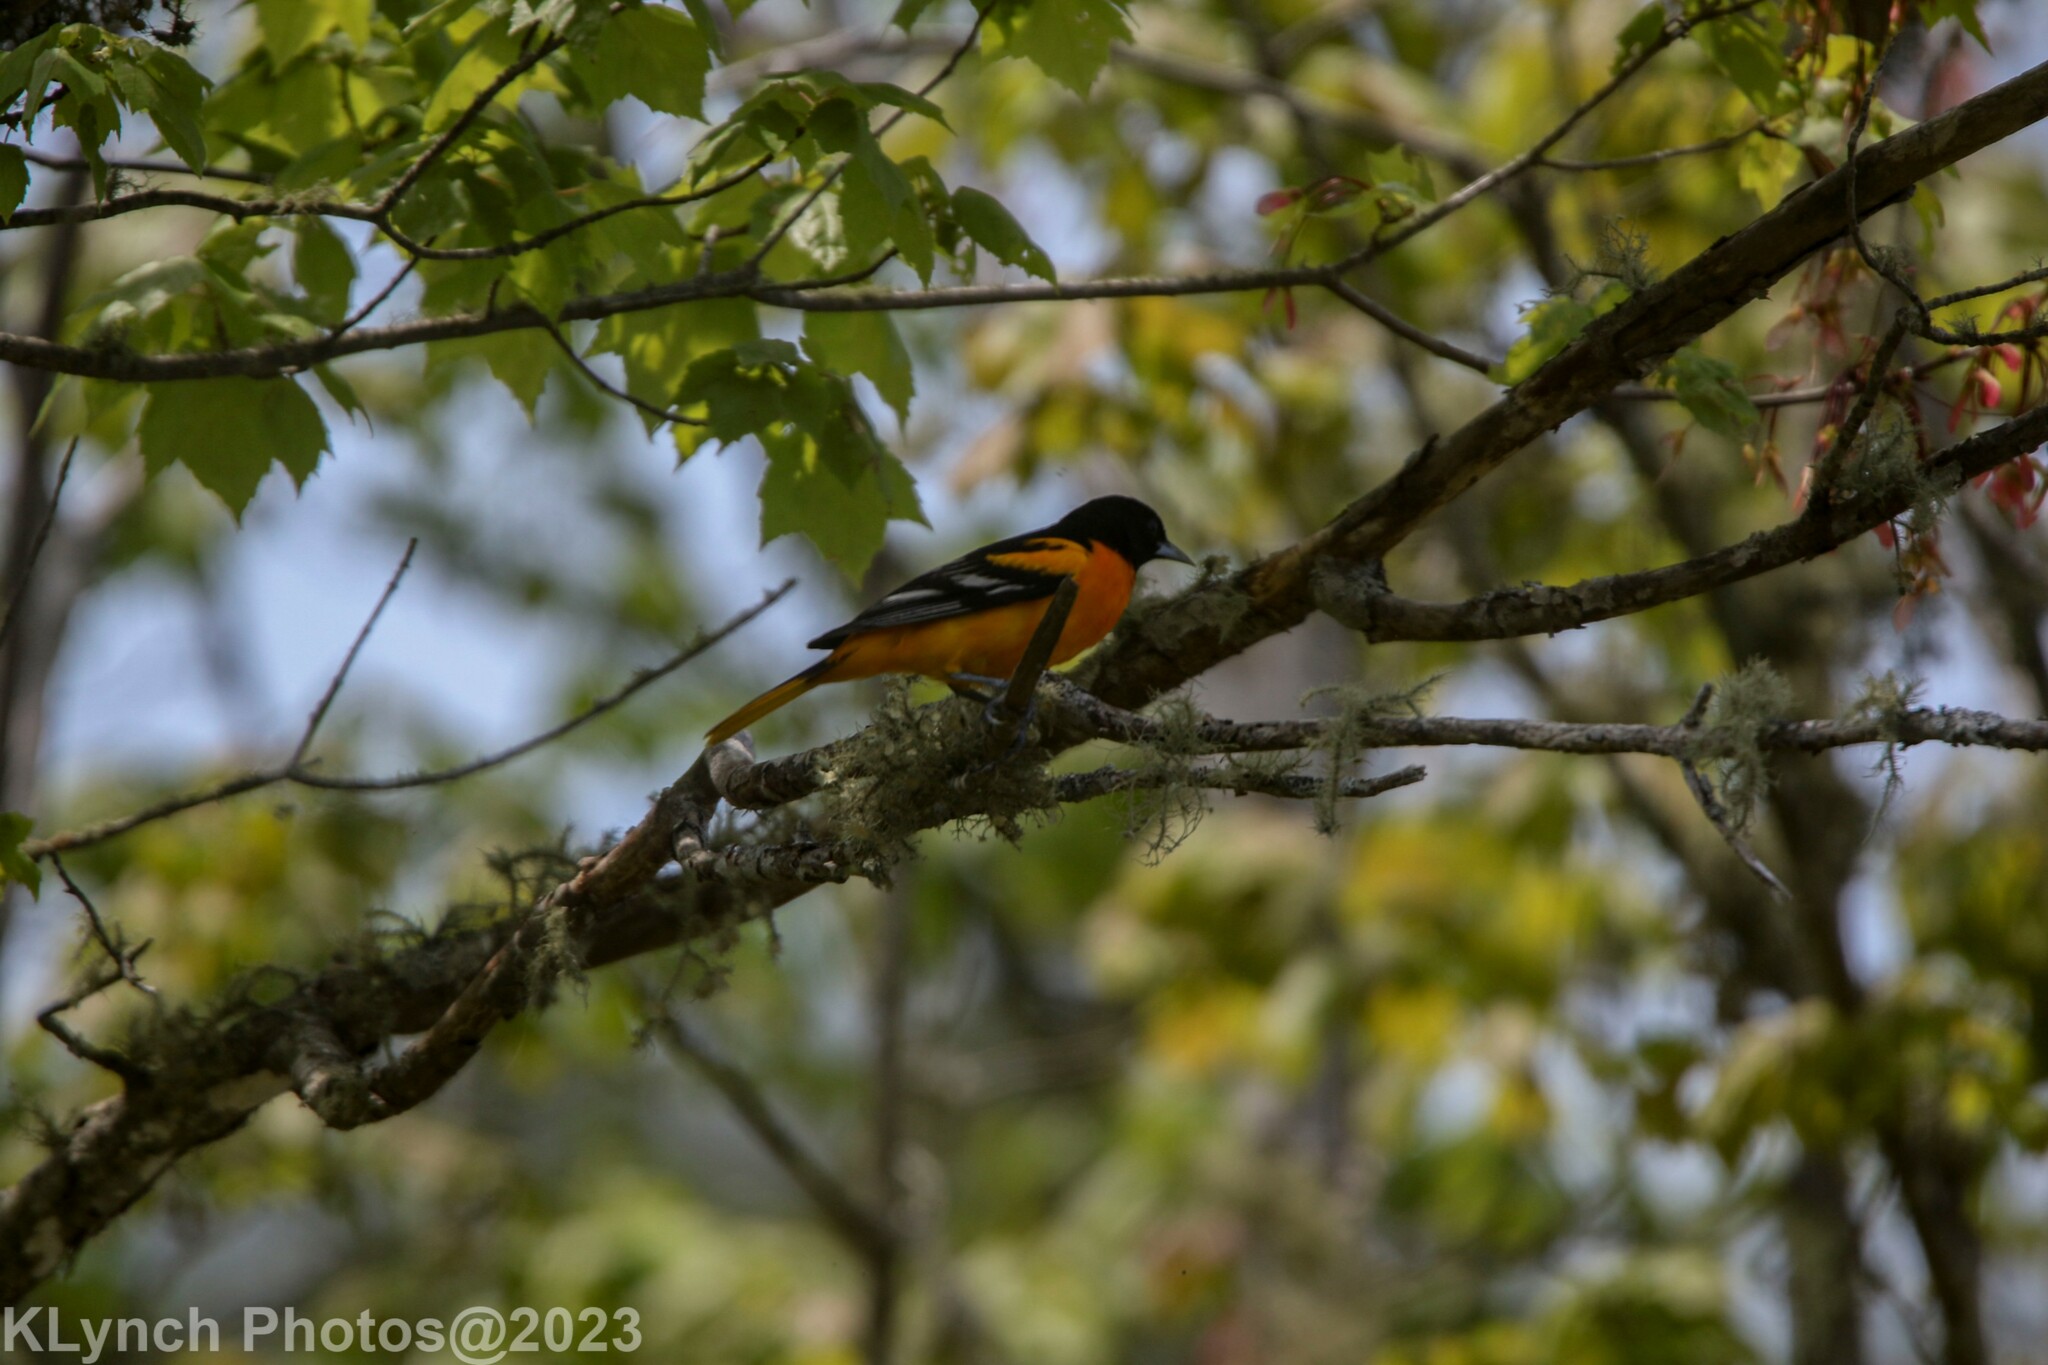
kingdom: Animalia
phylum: Chordata
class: Aves
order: Passeriformes
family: Icteridae
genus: Icterus
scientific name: Icterus galbula
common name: Baltimore oriole
